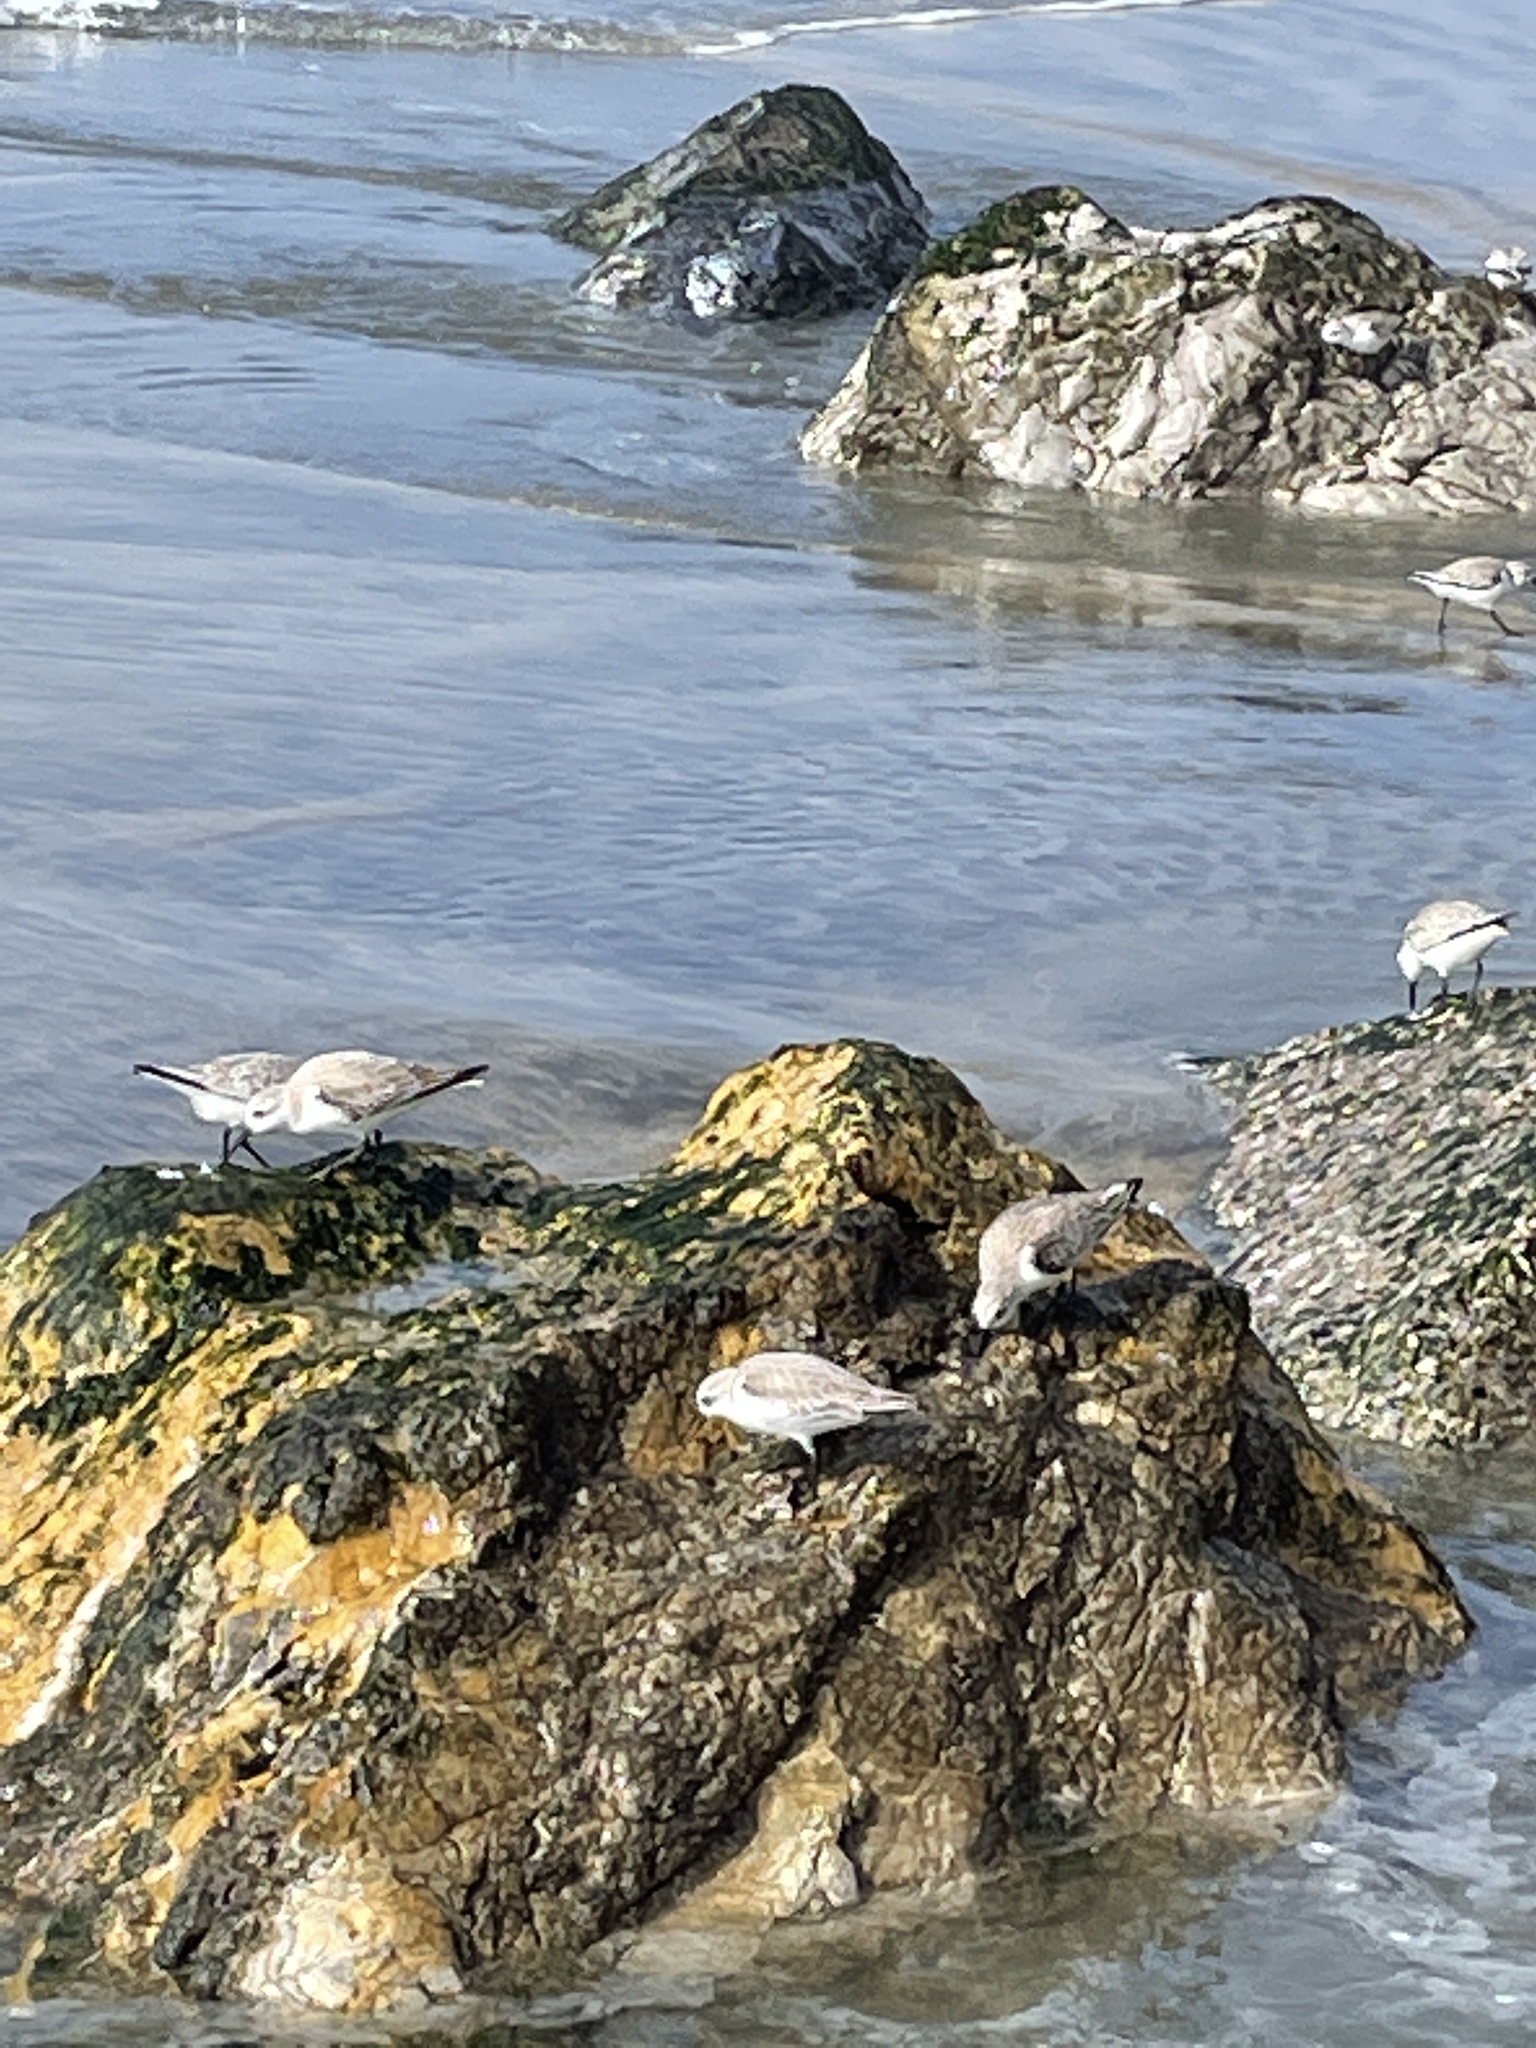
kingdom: Animalia
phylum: Chordata
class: Aves
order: Charadriiformes
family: Scolopacidae
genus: Calidris
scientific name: Calidris alba
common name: Sanderling
